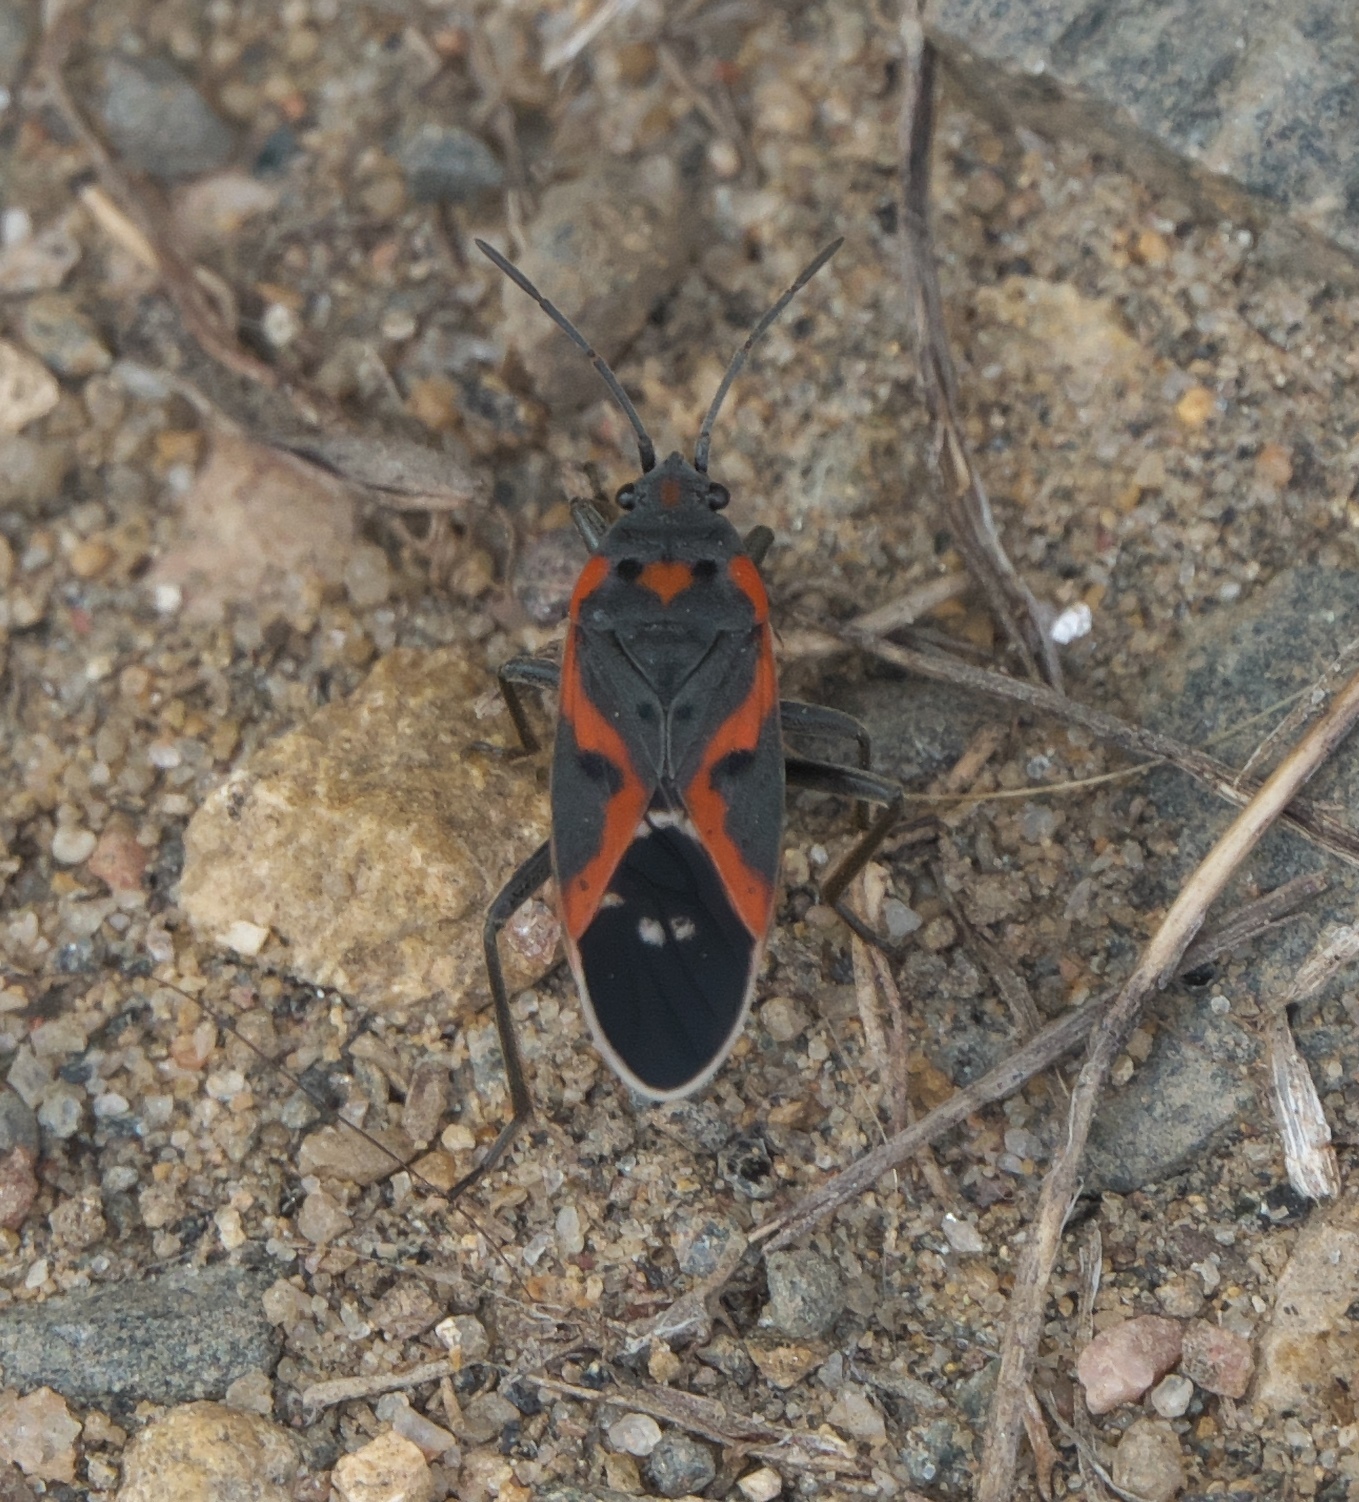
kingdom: Animalia
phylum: Arthropoda
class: Insecta
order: Hemiptera
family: Lygaeidae
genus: Lygaeus
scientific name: Lygaeus kalmii
